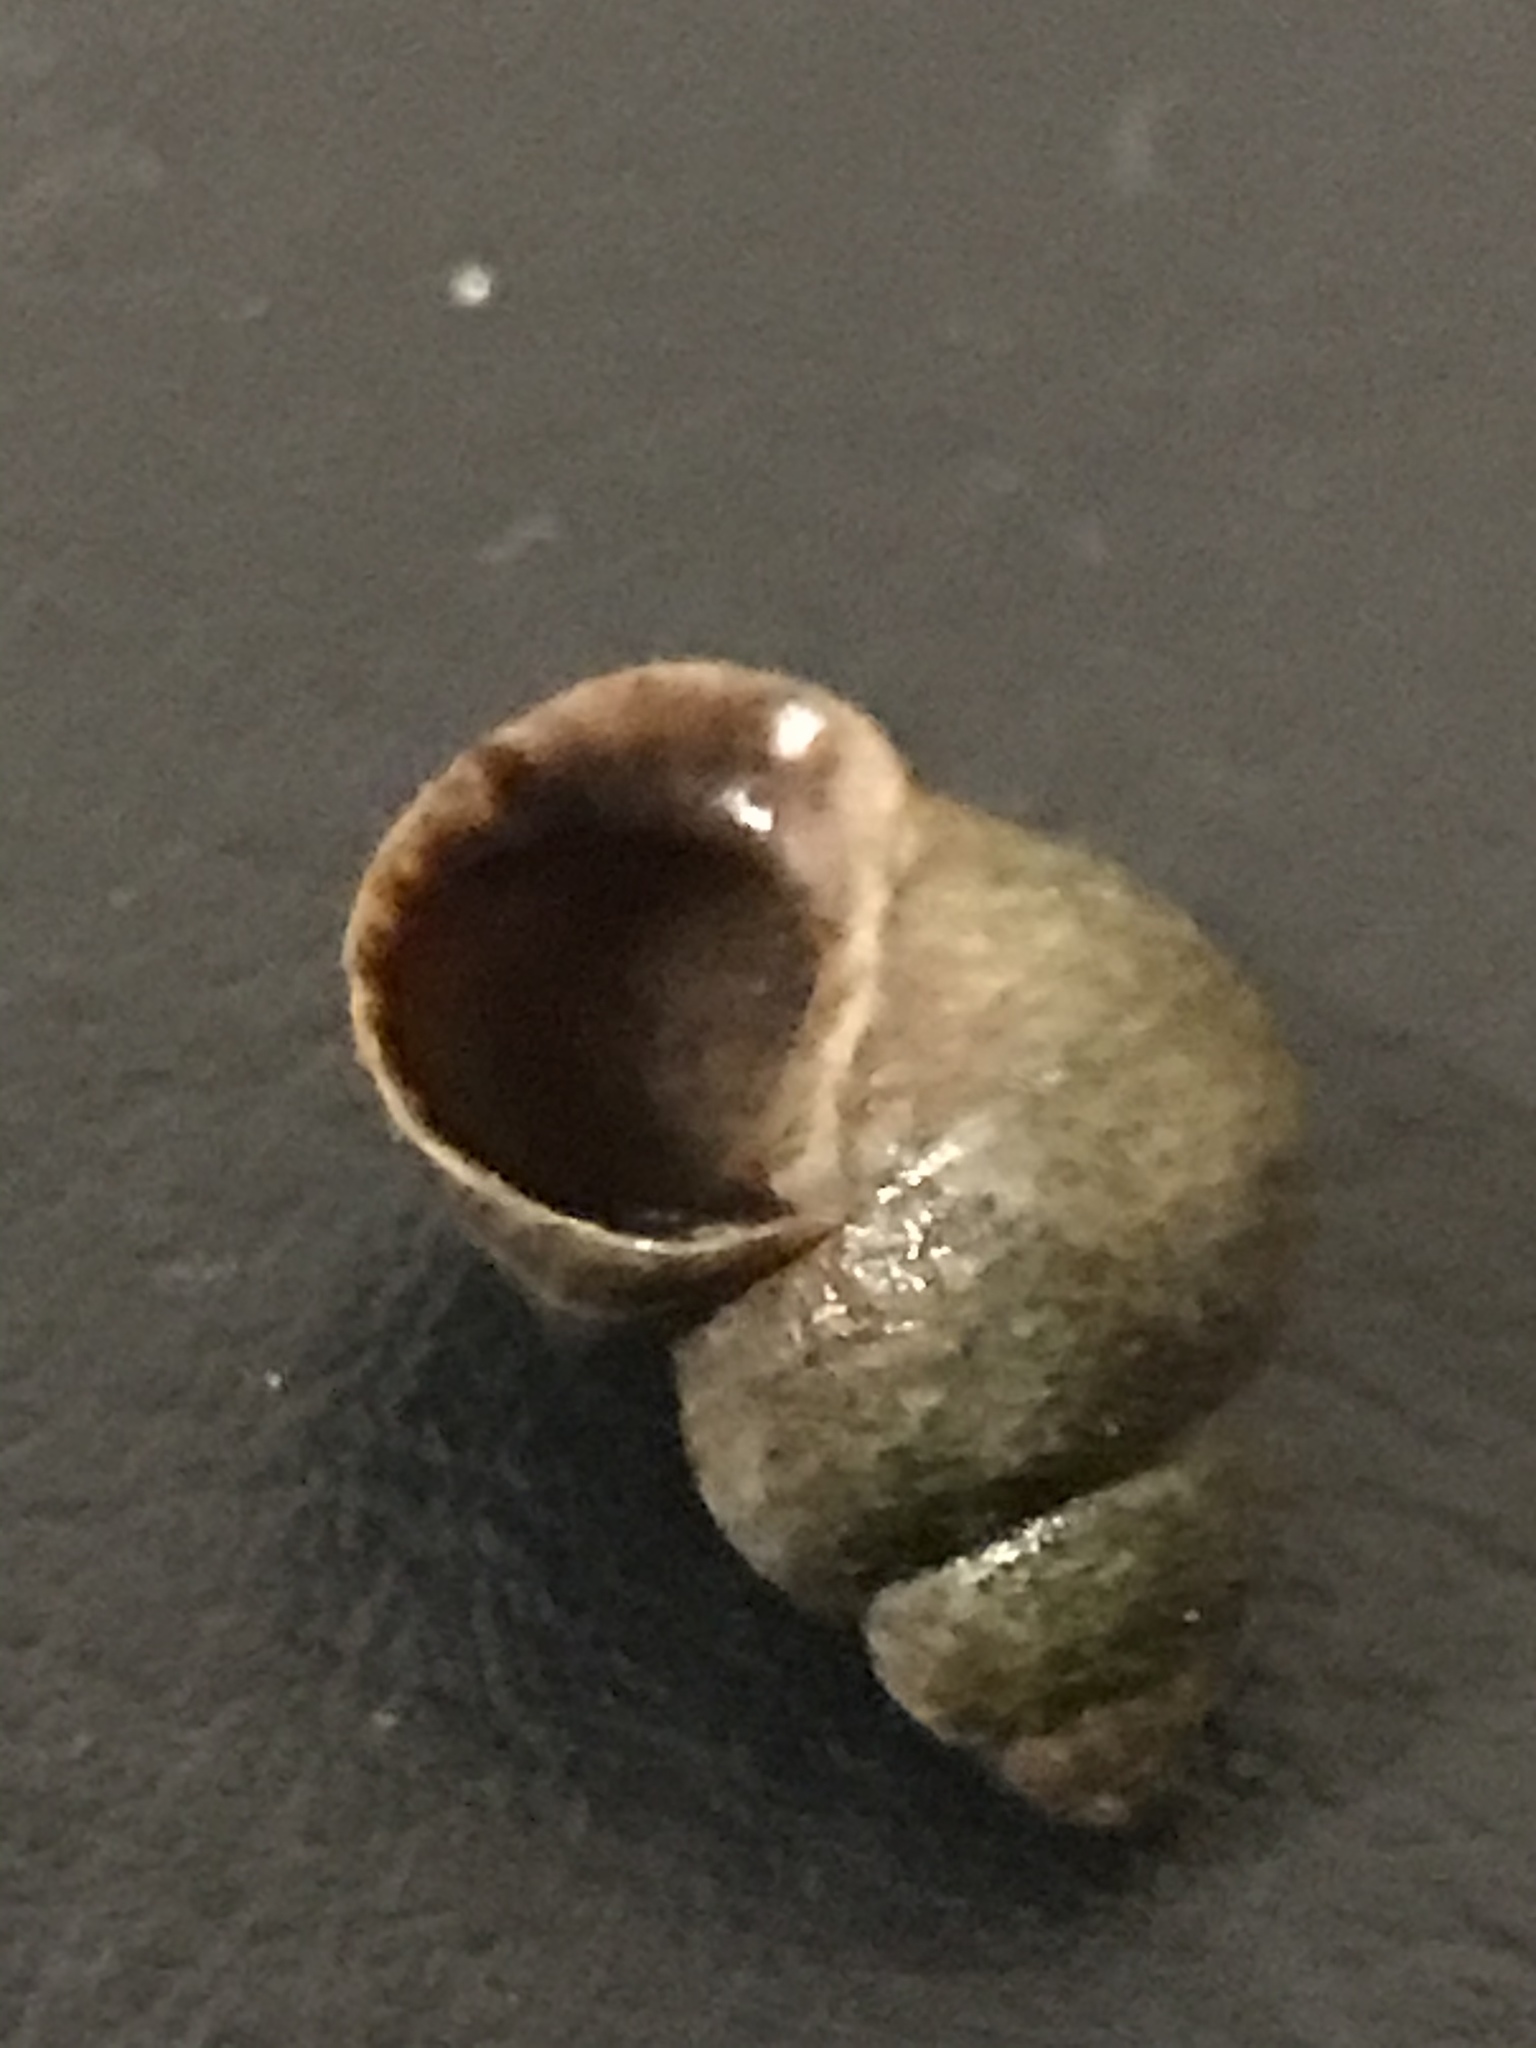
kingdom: Animalia
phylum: Mollusca
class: Gastropoda
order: Littorinimorpha
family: Littorinidae
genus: Littorina
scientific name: Littorina saxatilis
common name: Black-lined periwinkle
